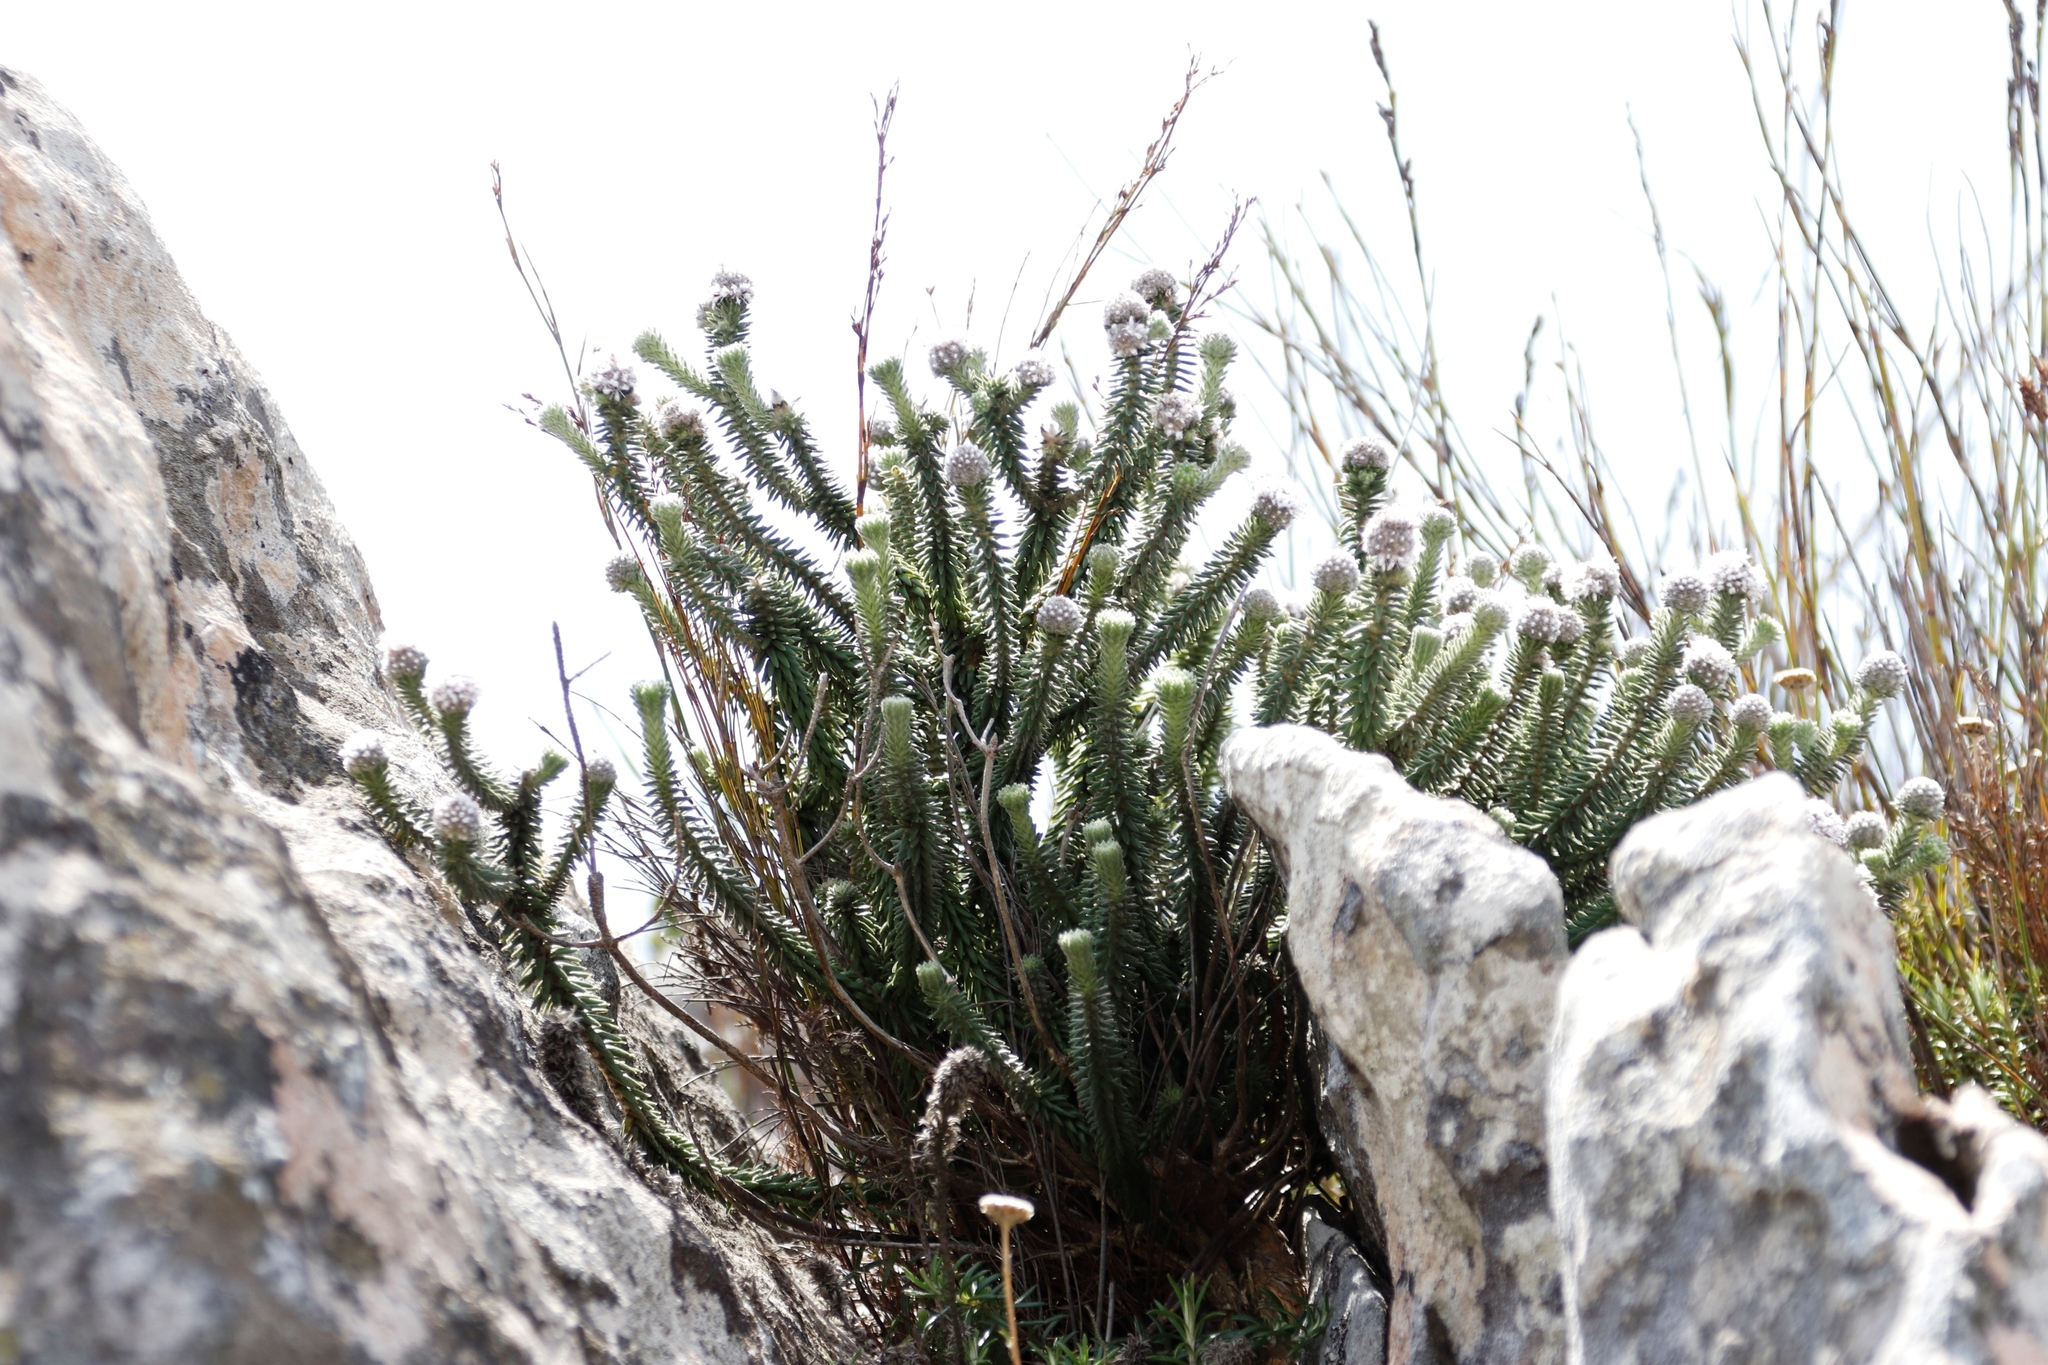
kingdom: Plantae
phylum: Tracheophyta
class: Magnoliopsida
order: Lamiales
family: Stilbaceae
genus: Kogelbergia
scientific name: Kogelbergia verticillata
